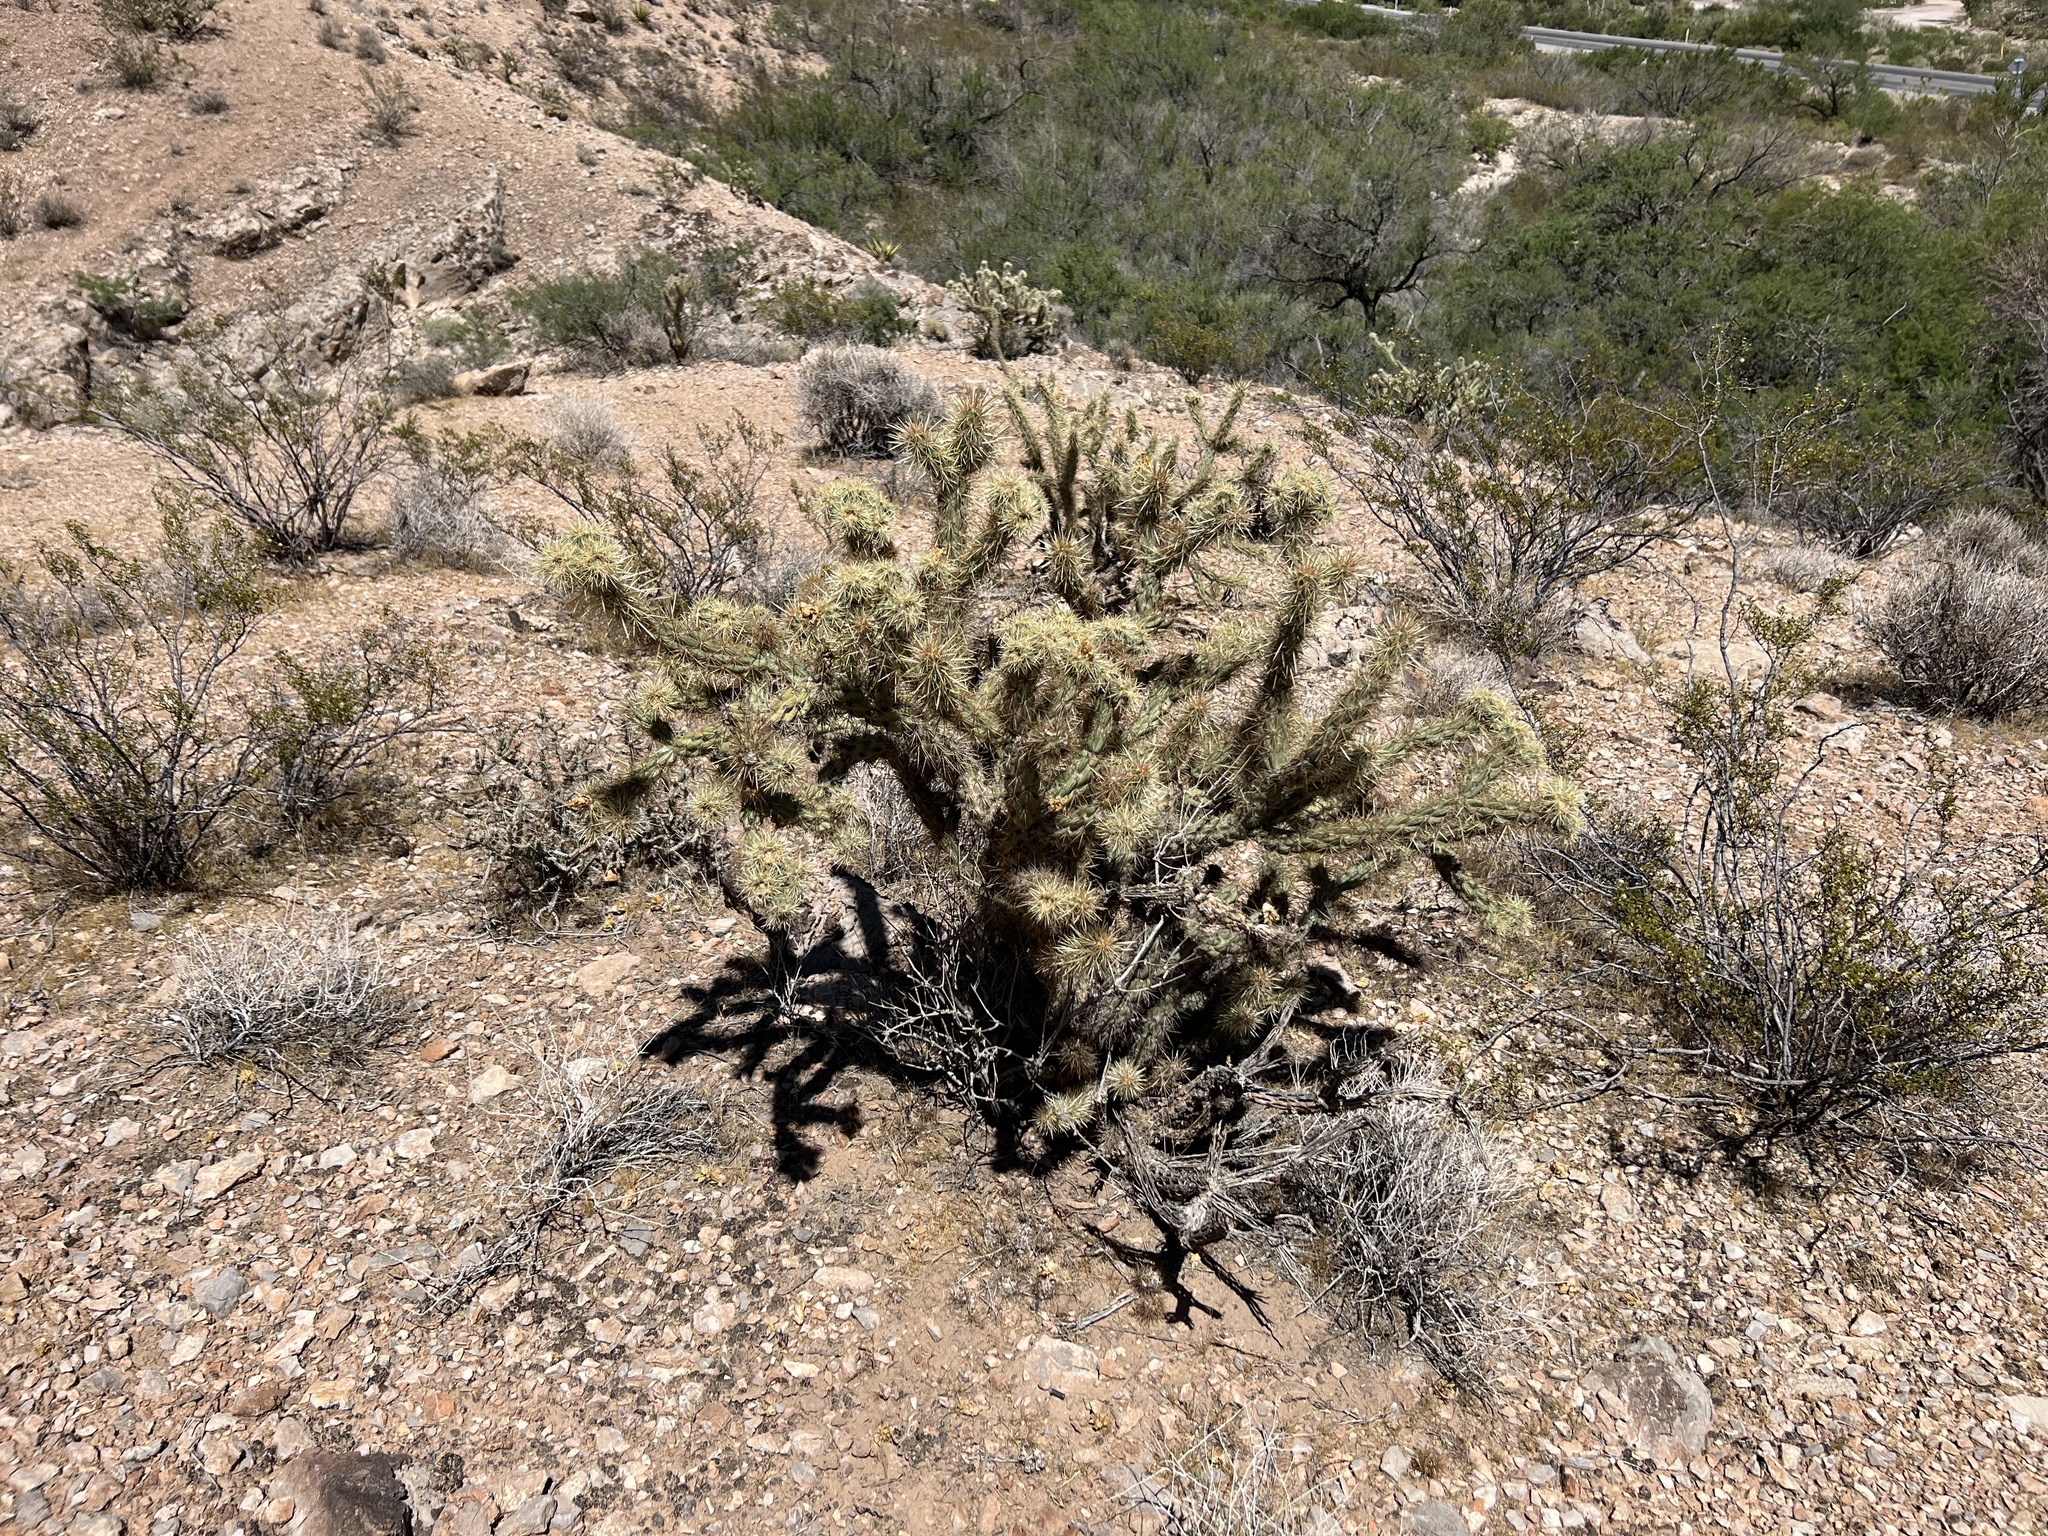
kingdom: Plantae
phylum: Tracheophyta
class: Magnoliopsida
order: Caryophyllales
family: Cactaceae
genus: Cylindropuntia
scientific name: Cylindropuntia acanthocarpa
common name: Buckhorn cholla
